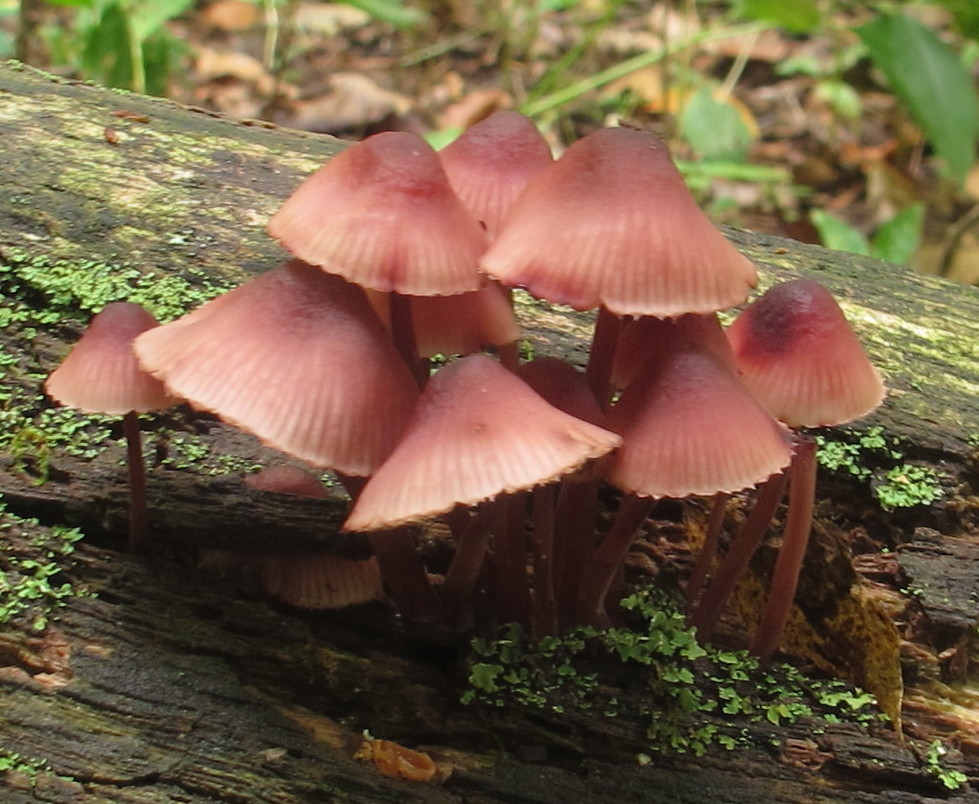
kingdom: Fungi
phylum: Basidiomycota
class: Agaricomycetes
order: Agaricales
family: Mycenaceae
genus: Mycena
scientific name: Mycena haematopus
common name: Burgundydrop bonnet
